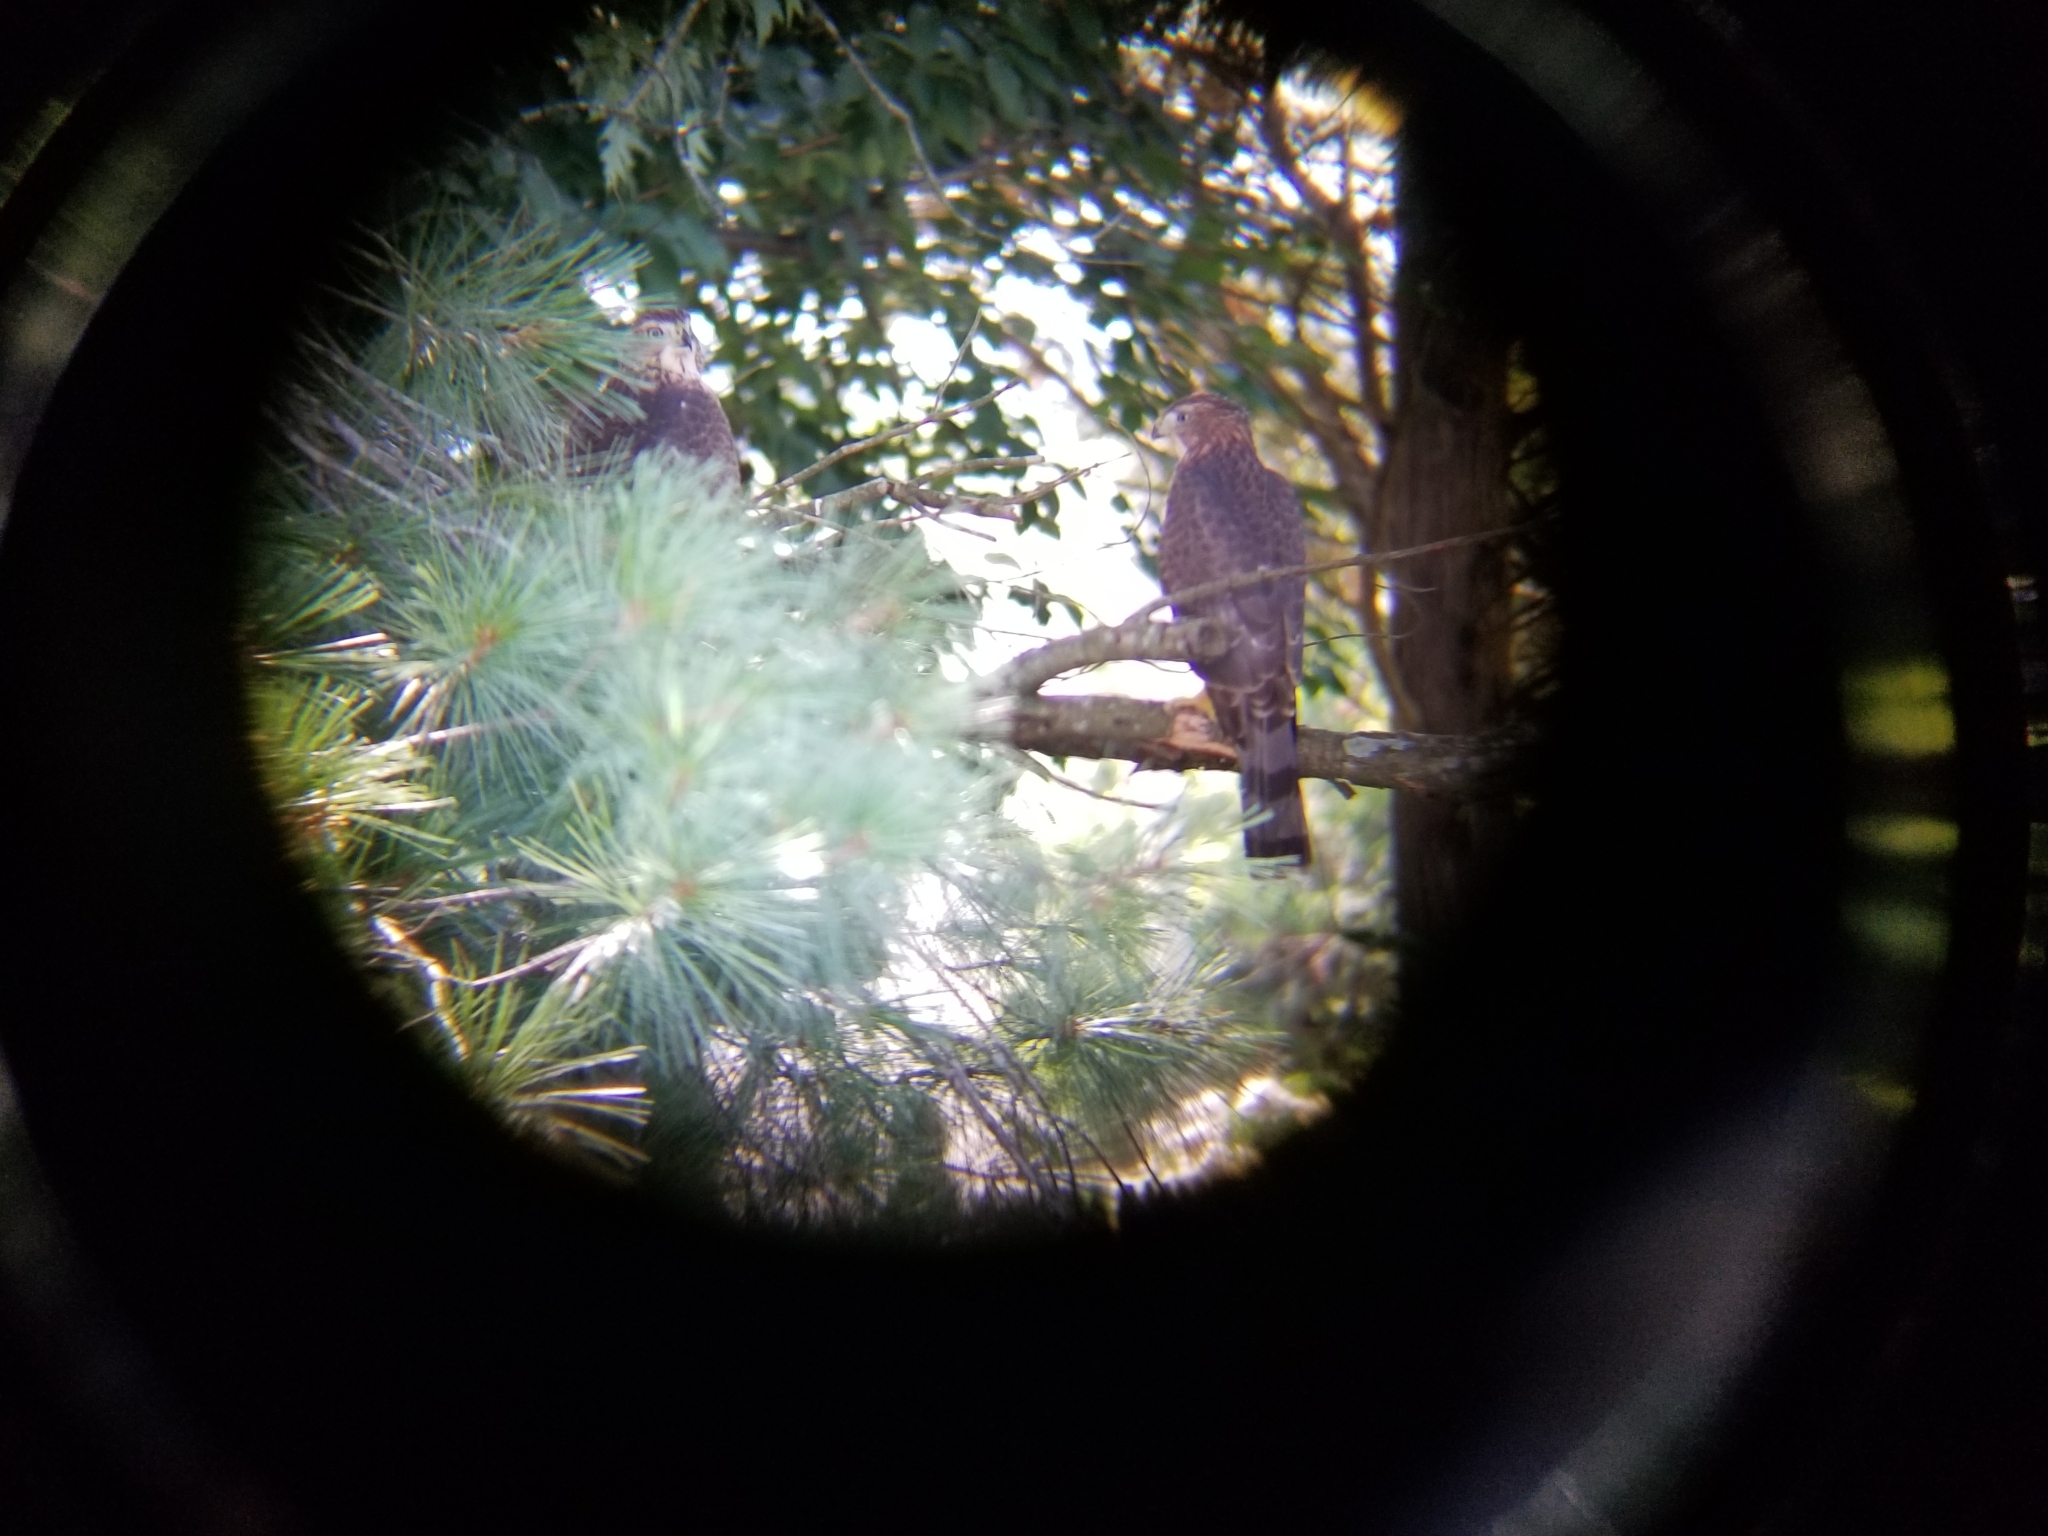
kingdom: Animalia
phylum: Chordata
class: Aves
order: Accipitriformes
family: Accipitridae
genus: Accipiter
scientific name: Accipiter cooperii
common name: Cooper's hawk
